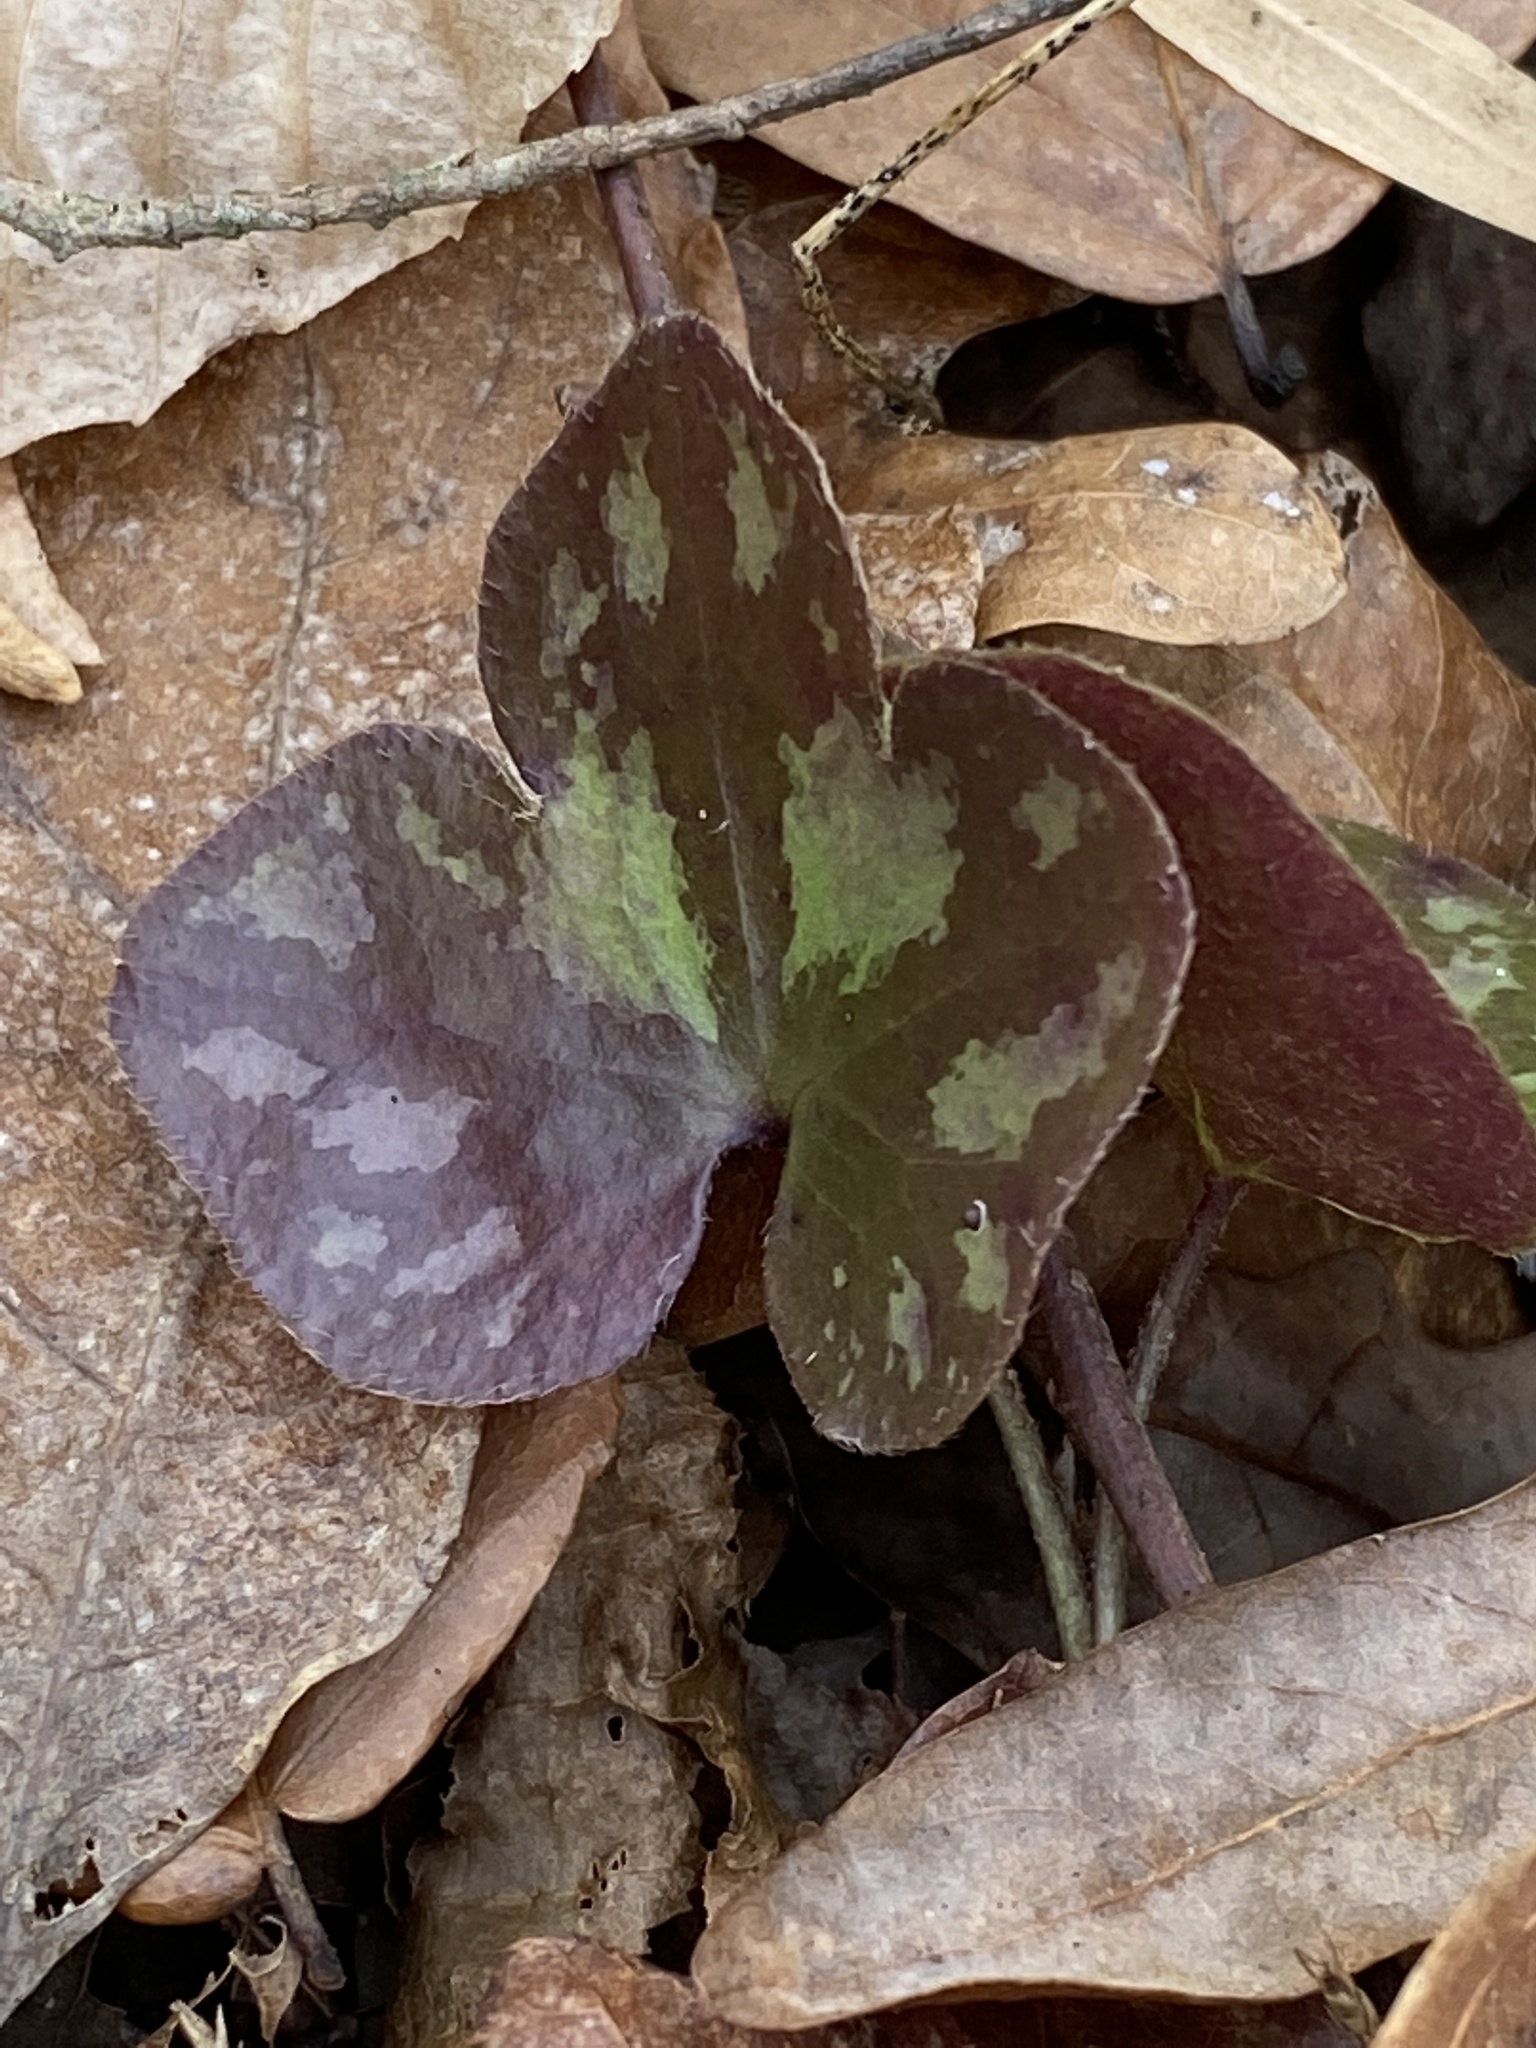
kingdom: Plantae
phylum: Tracheophyta
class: Magnoliopsida
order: Ranunculales
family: Ranunculaceae
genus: Hepatica
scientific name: Hepatica americana
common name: American hepatica
